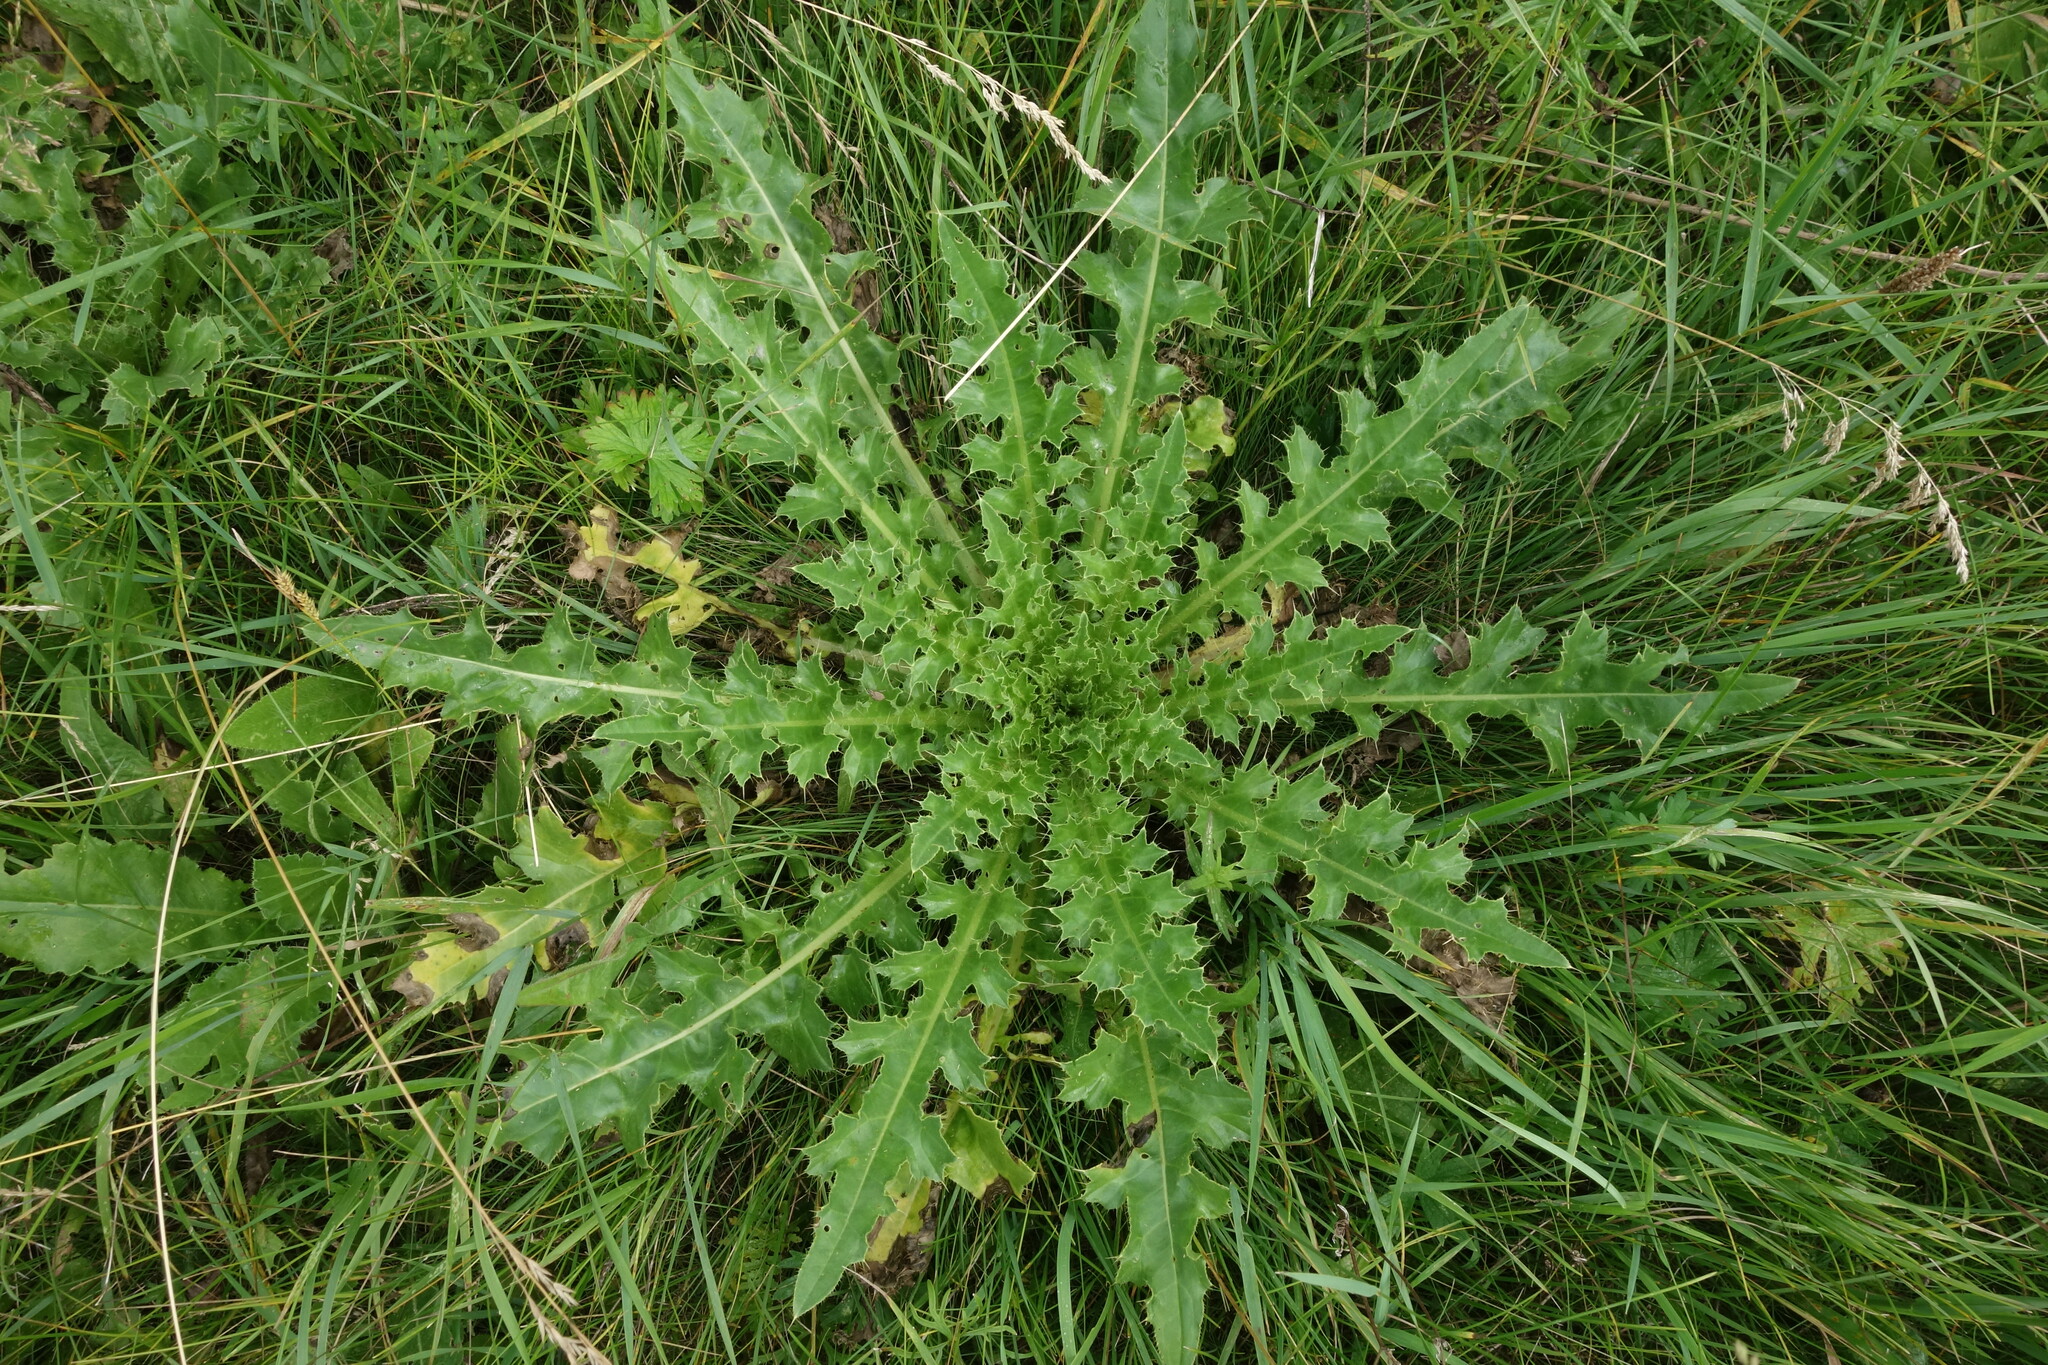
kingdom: Plantae
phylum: Tracheophyta
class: Magnoliopsida
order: Asterales
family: Asteraceae
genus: Cirsium
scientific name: Cirsium esculentum
